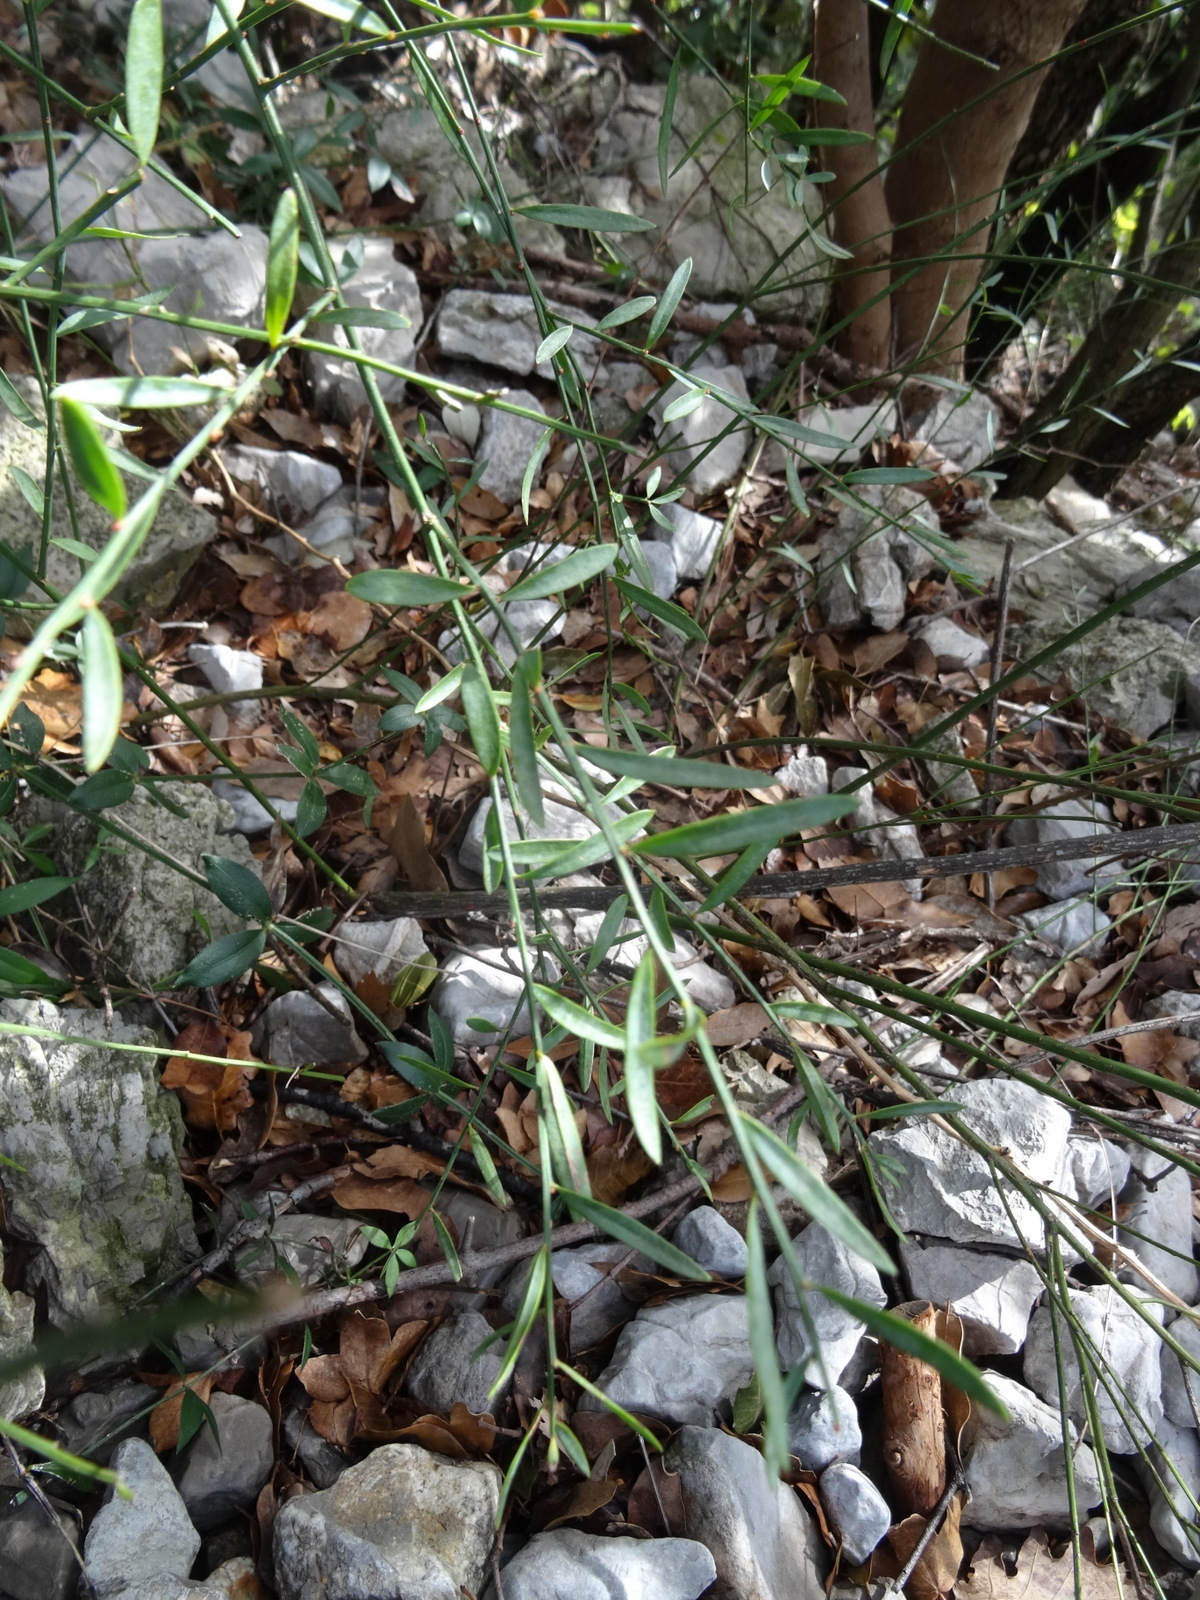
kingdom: Plantae
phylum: Tracheophyta
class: Magnoliopsida
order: Santalales
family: Santalaceae
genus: Osyris
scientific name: Osyris alba
